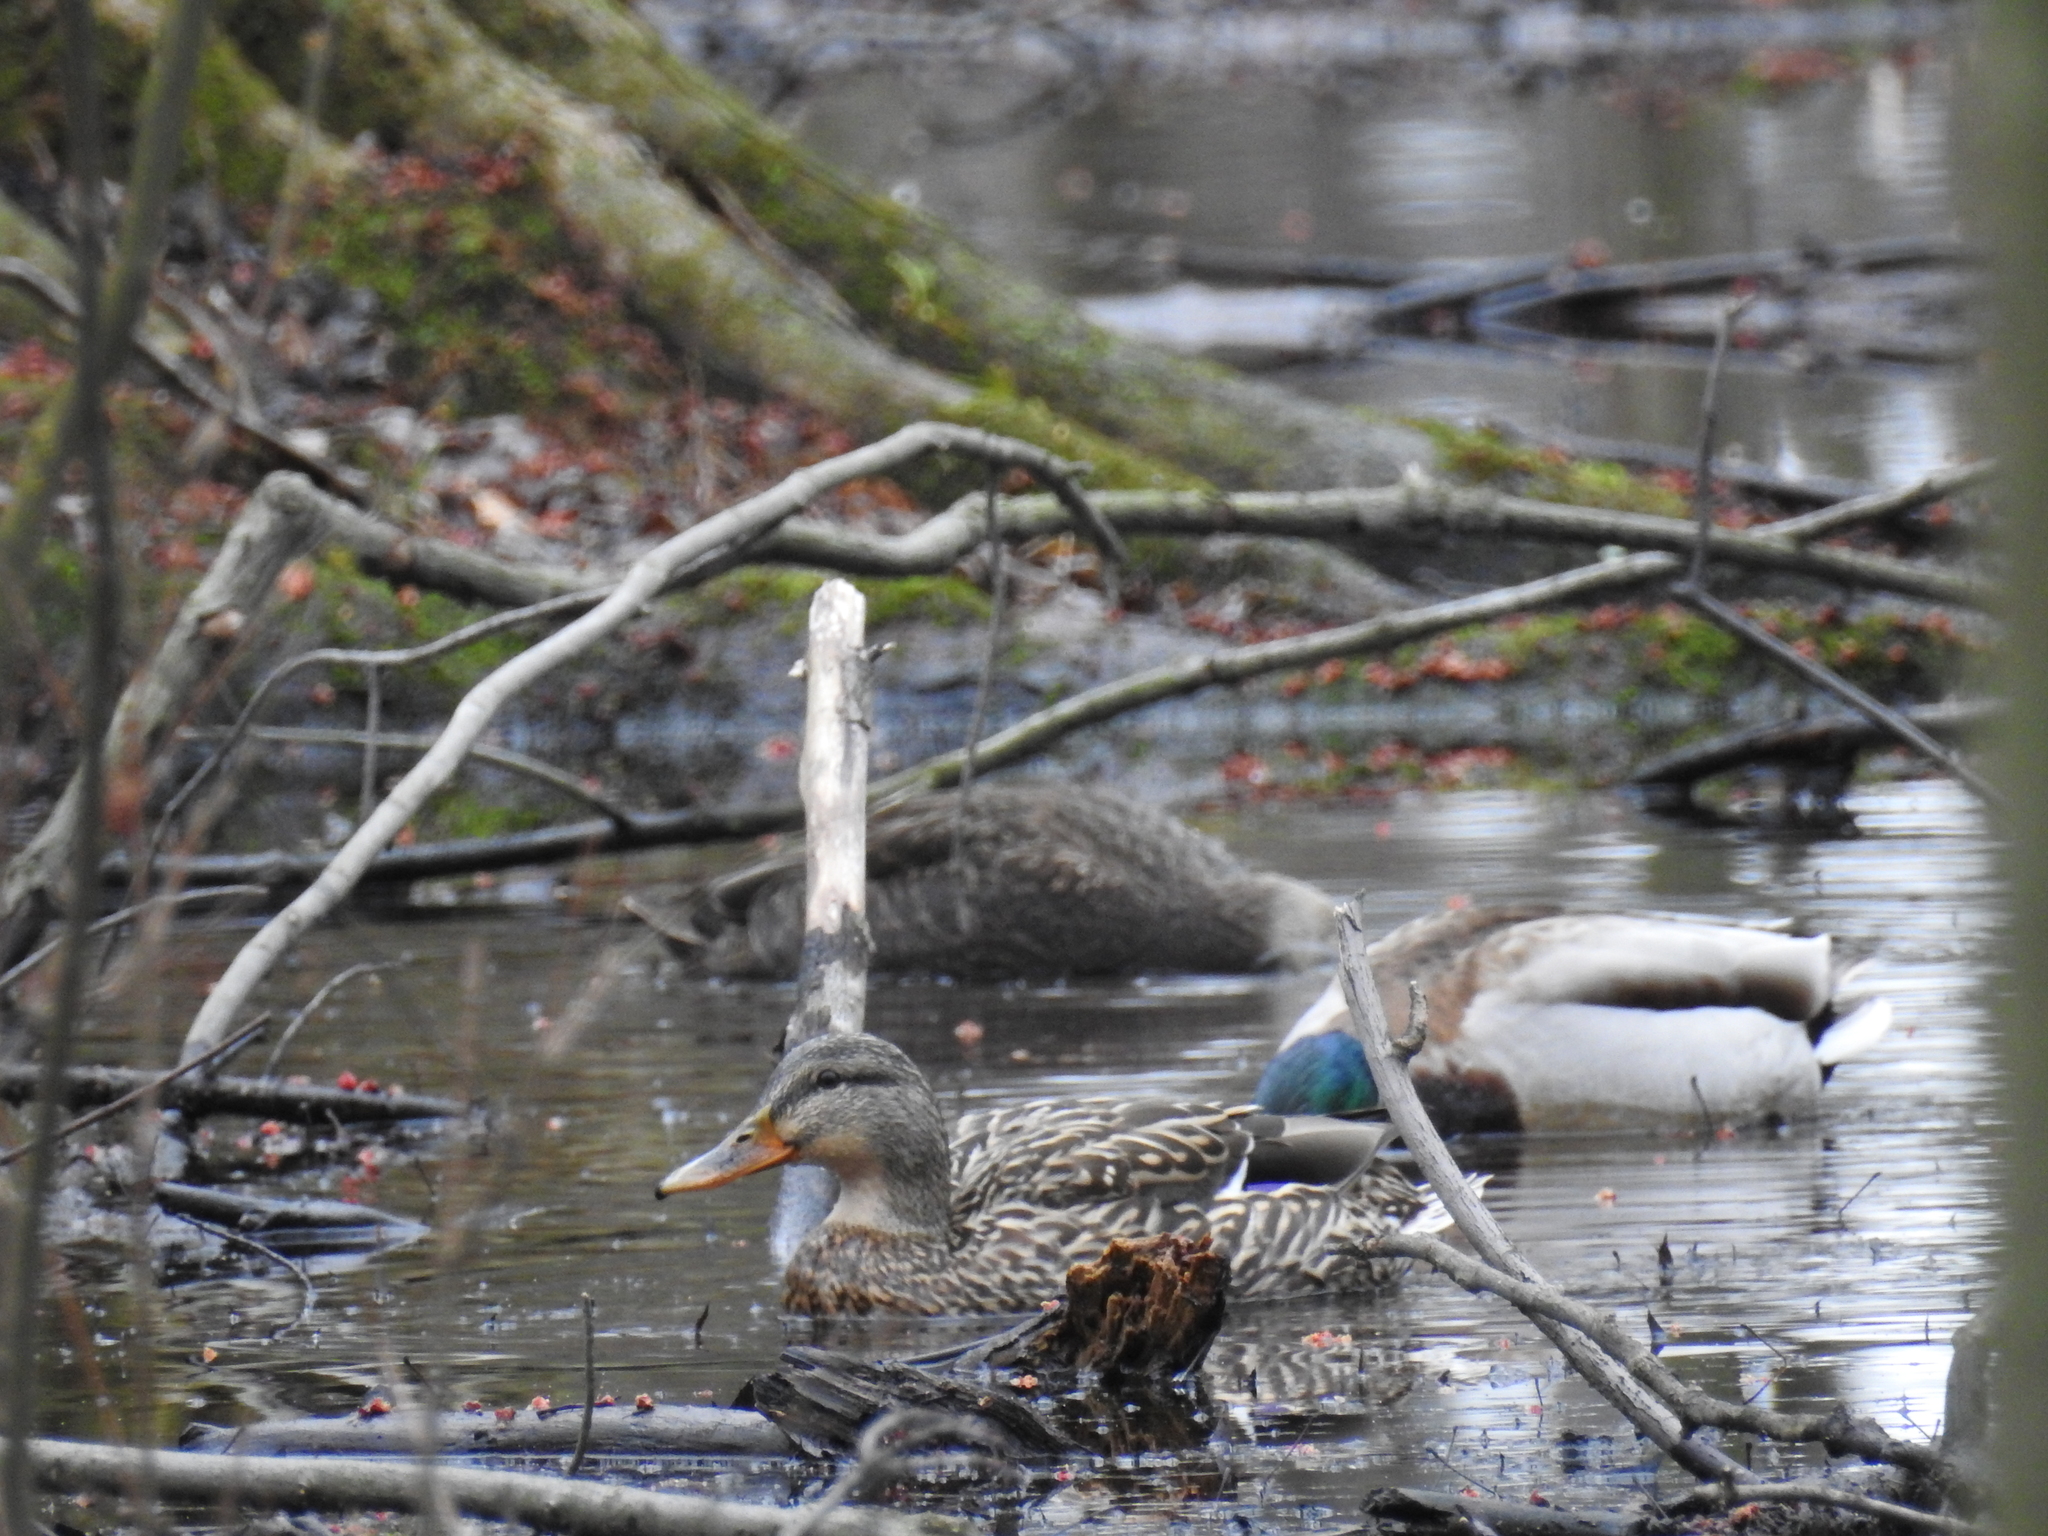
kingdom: Animalia
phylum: Chordata
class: Aves
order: Anseriformes
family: Anatidae
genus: Anas
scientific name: Anas platyrhynchos
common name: Mallard
